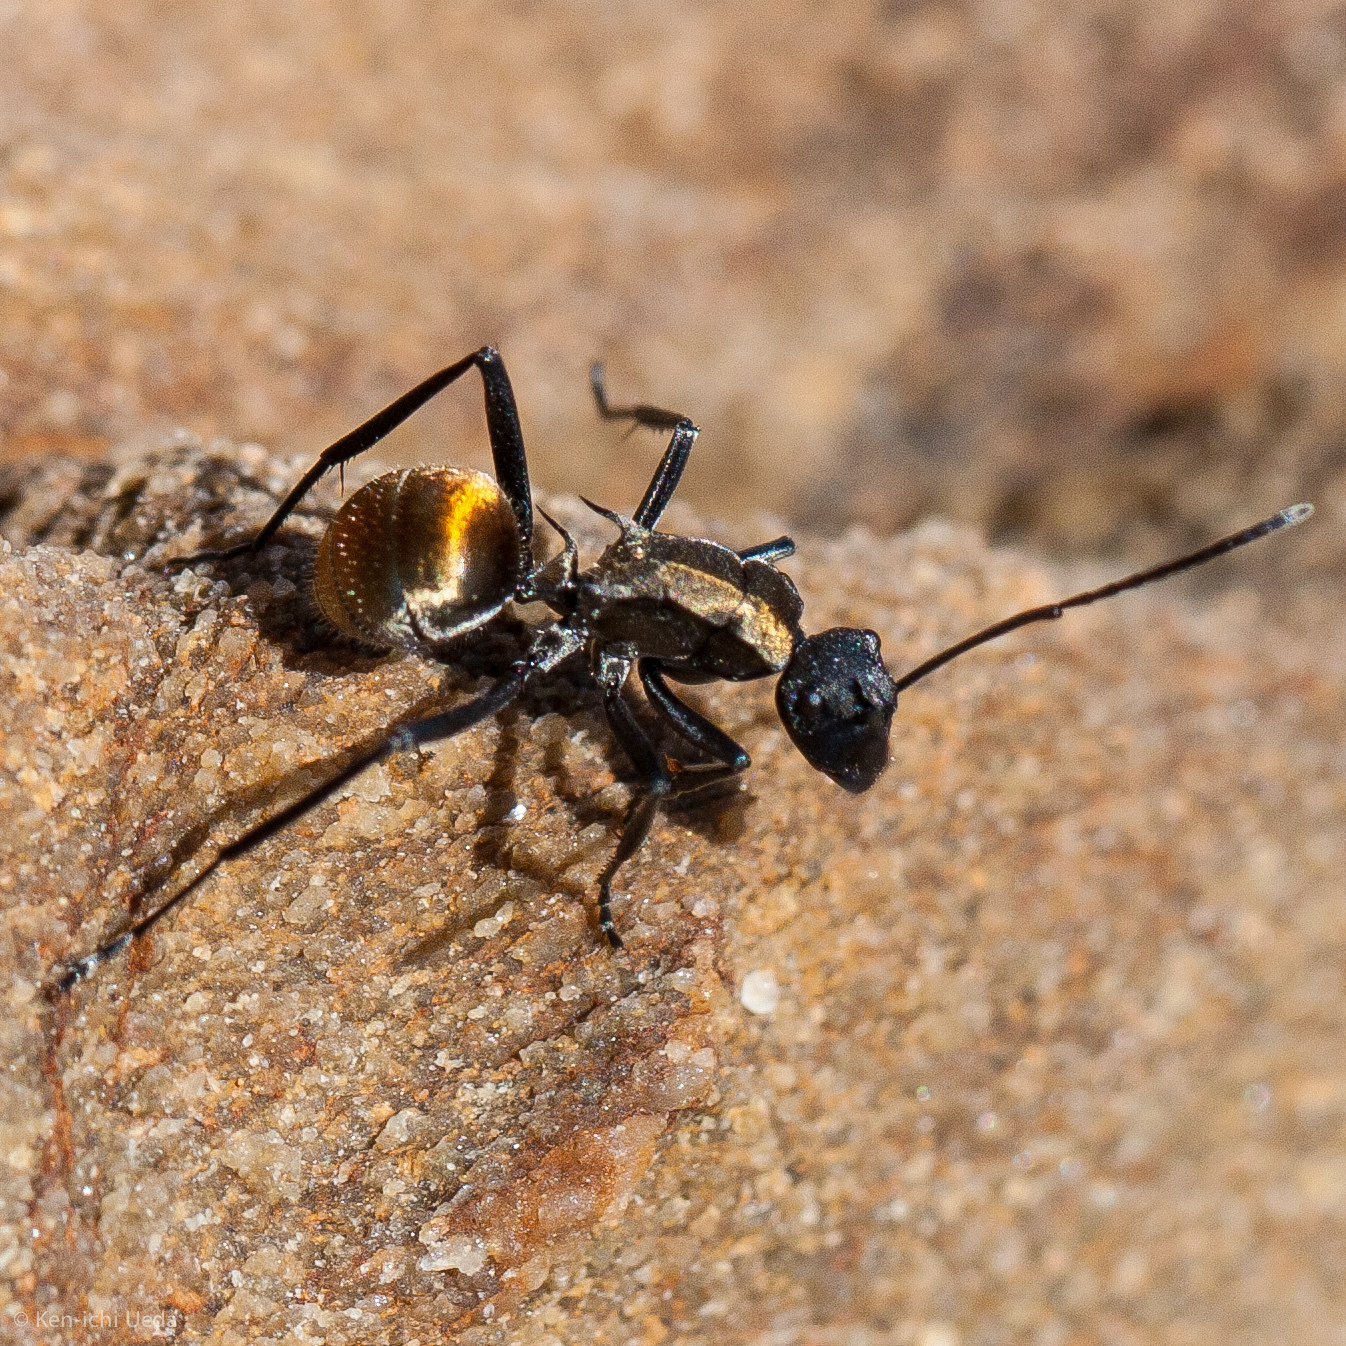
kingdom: Animalia
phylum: Arthropoda
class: Insecta
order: Hymenoptera
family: Formicidae
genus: Polyrhachis
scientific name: Polyrhachis ammon
